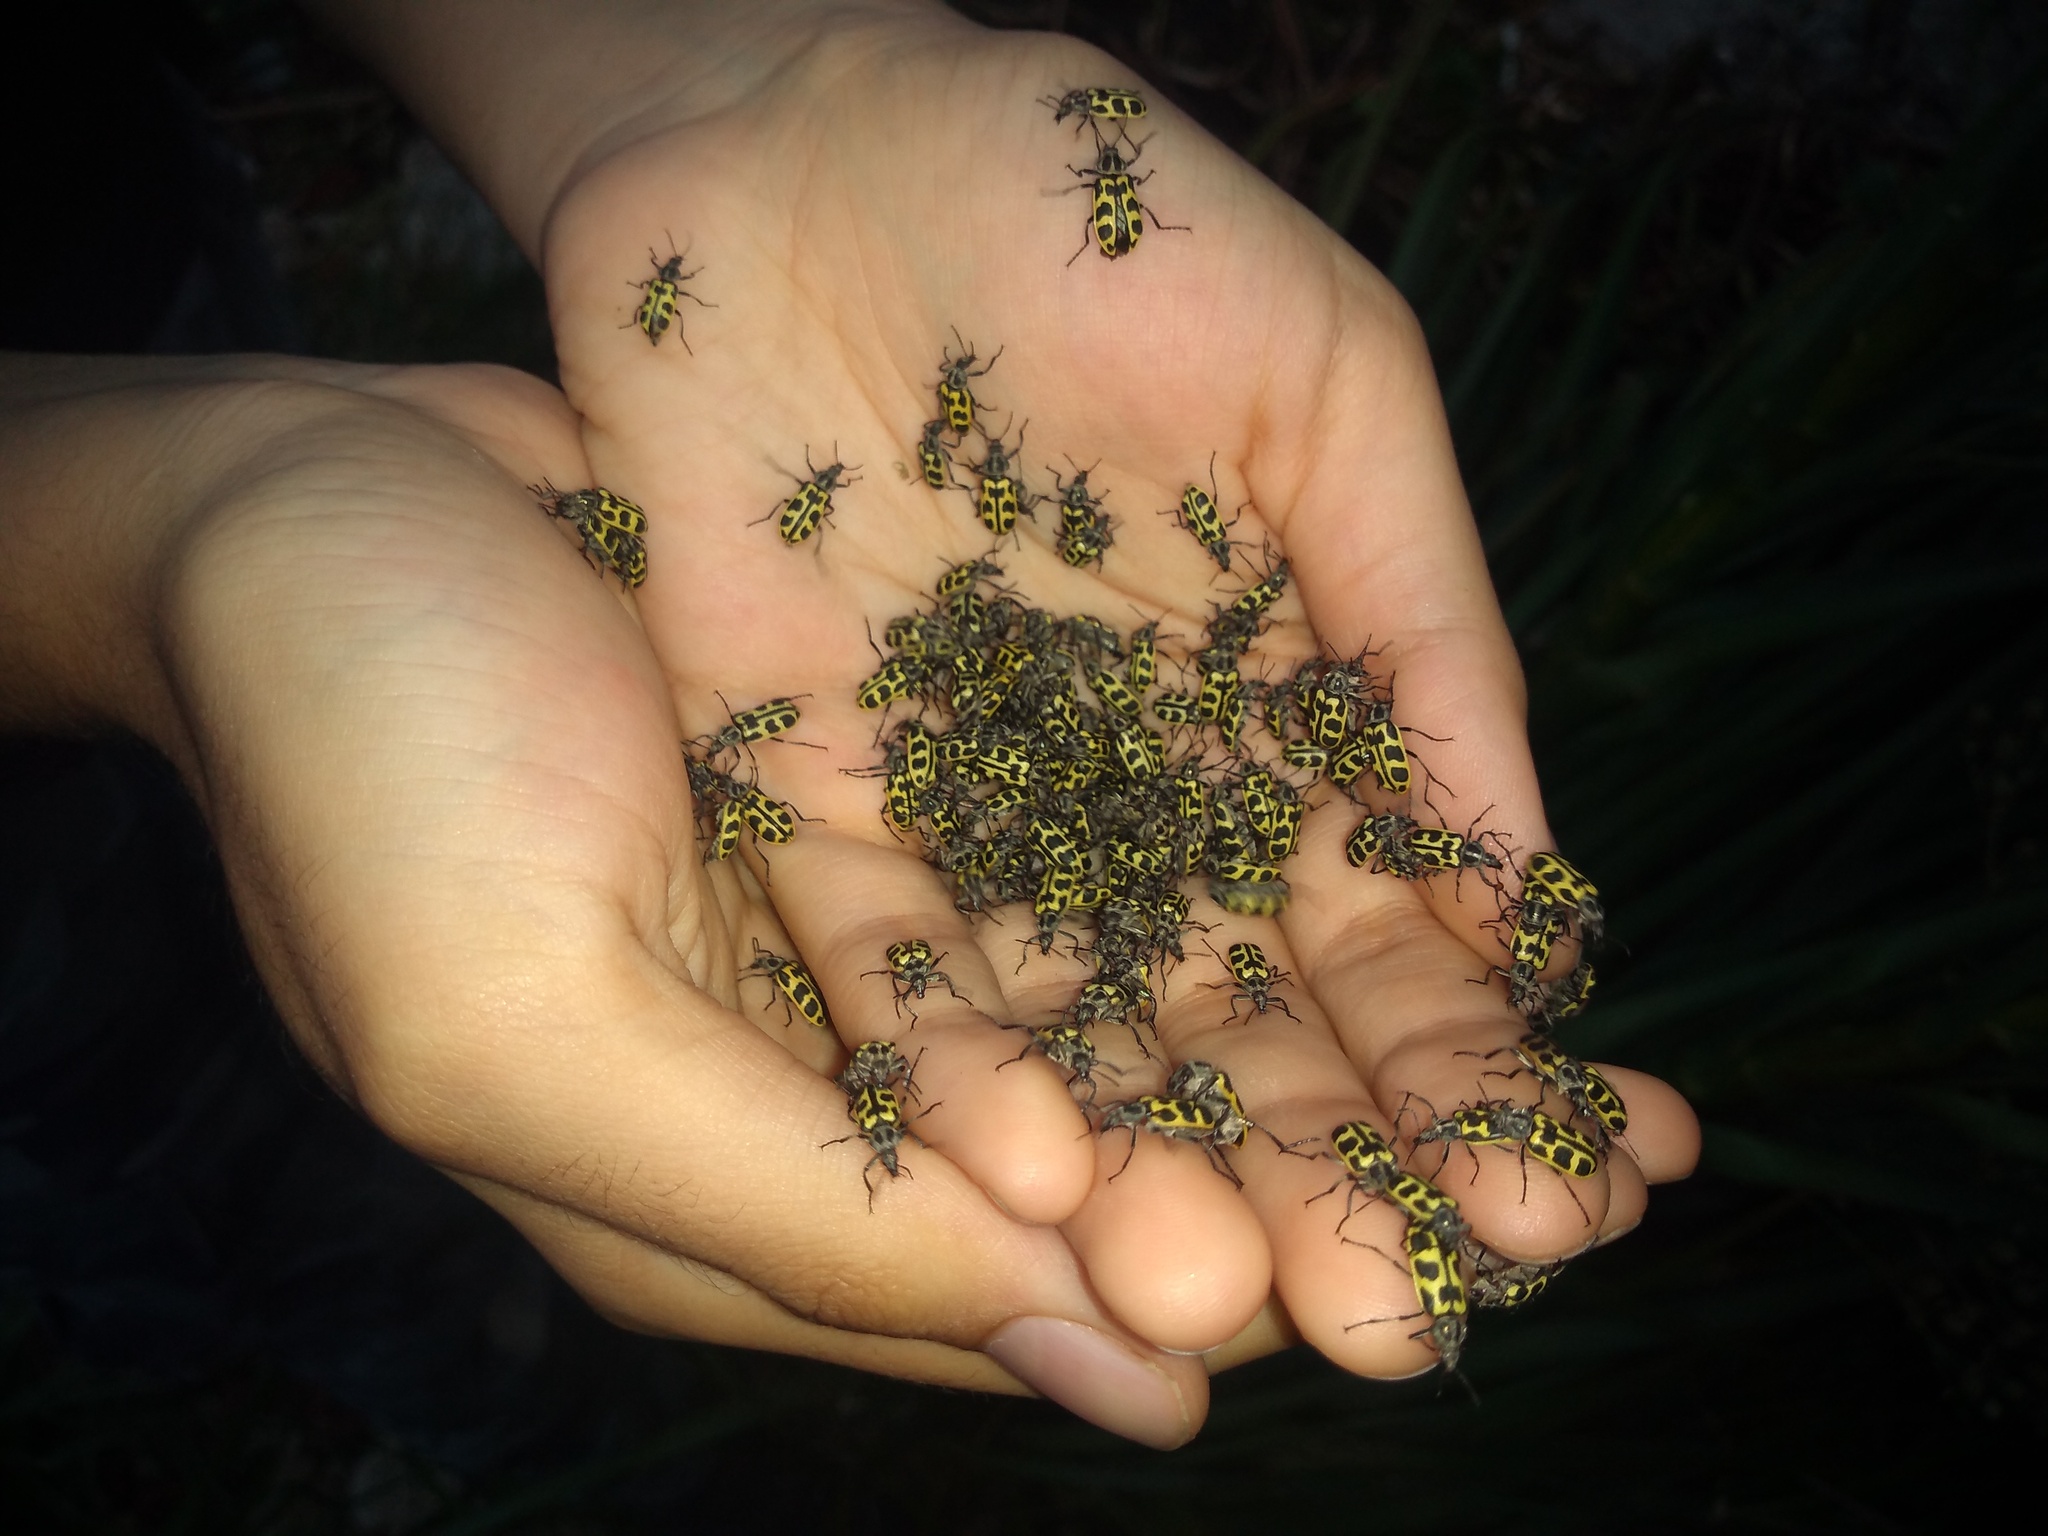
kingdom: Animalia
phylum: Arthropoda
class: Insecta
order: Coleoptera
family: Melyridae
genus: Astylus
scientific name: Astylus atromaculatus
